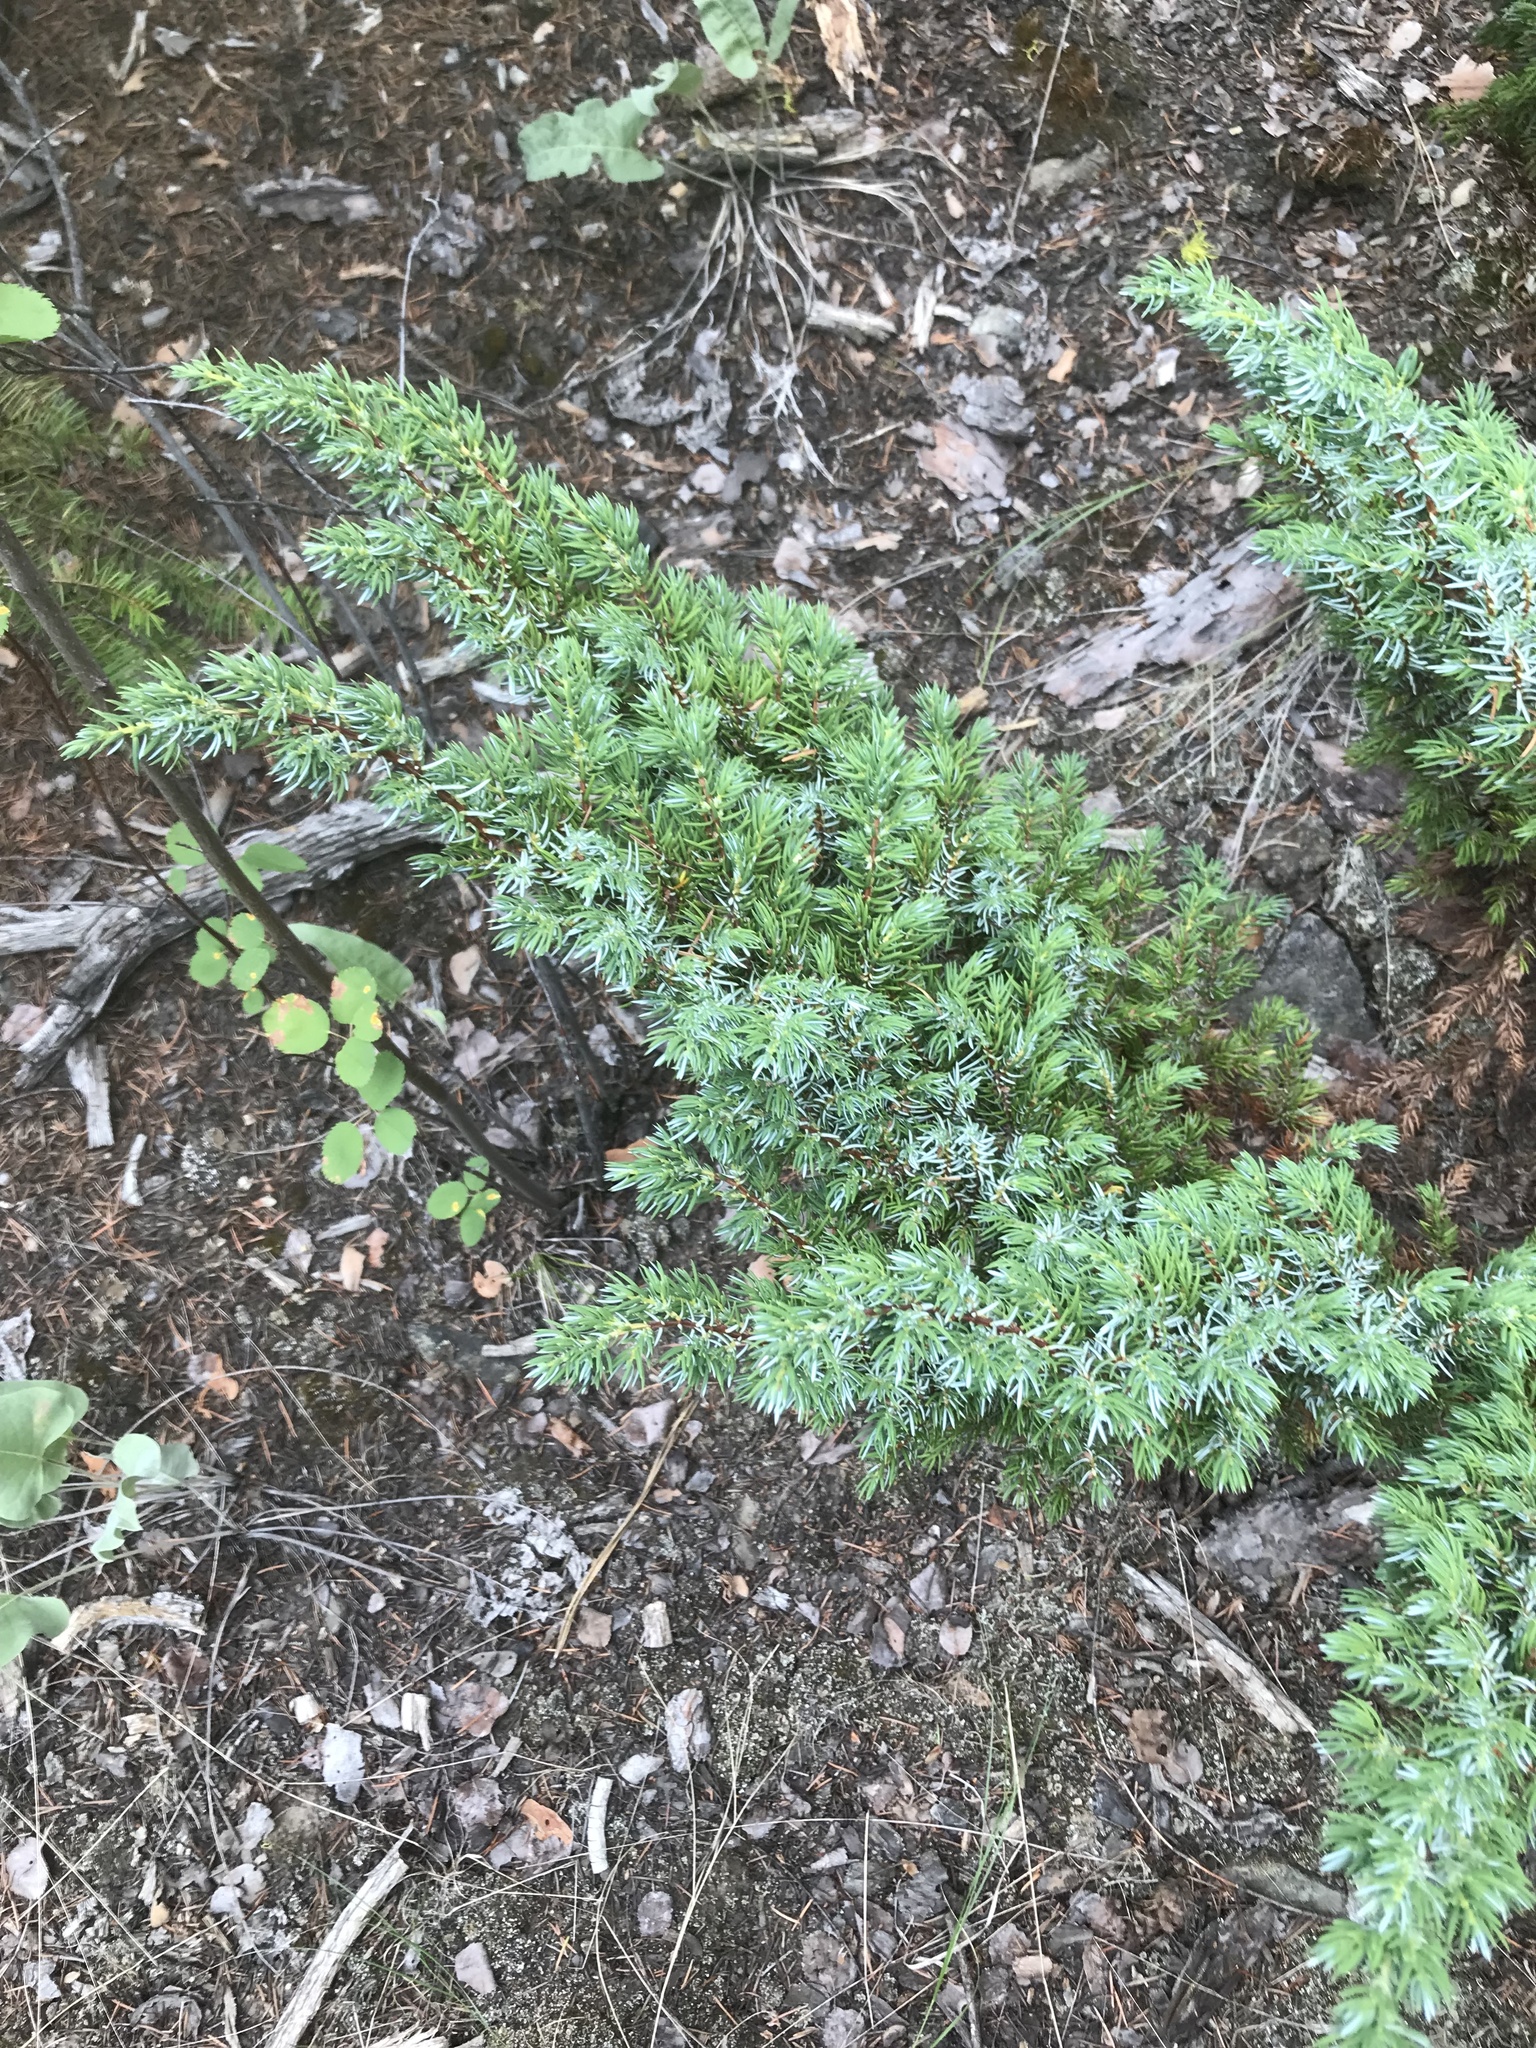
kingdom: Plantae
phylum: Tracheophyta
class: Pinopsida
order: Pinales
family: Cupressaceae
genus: Juniperus
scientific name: Juniperus communis
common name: Common juniper
